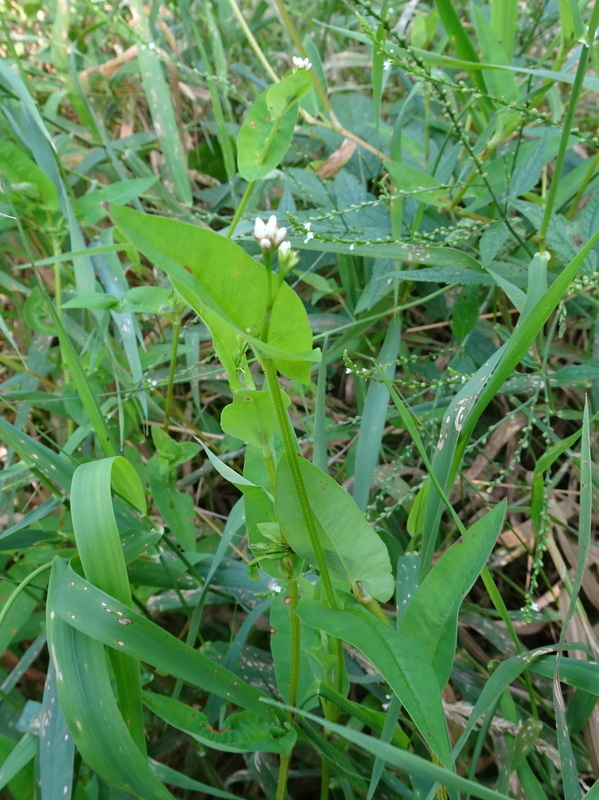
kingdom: Plantae
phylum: Tracheophyta
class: Magnoliopsida
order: Caryophyllales
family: Polygonaceae
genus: Persicaria
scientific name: Persicaria sagittata
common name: American tearthumb
